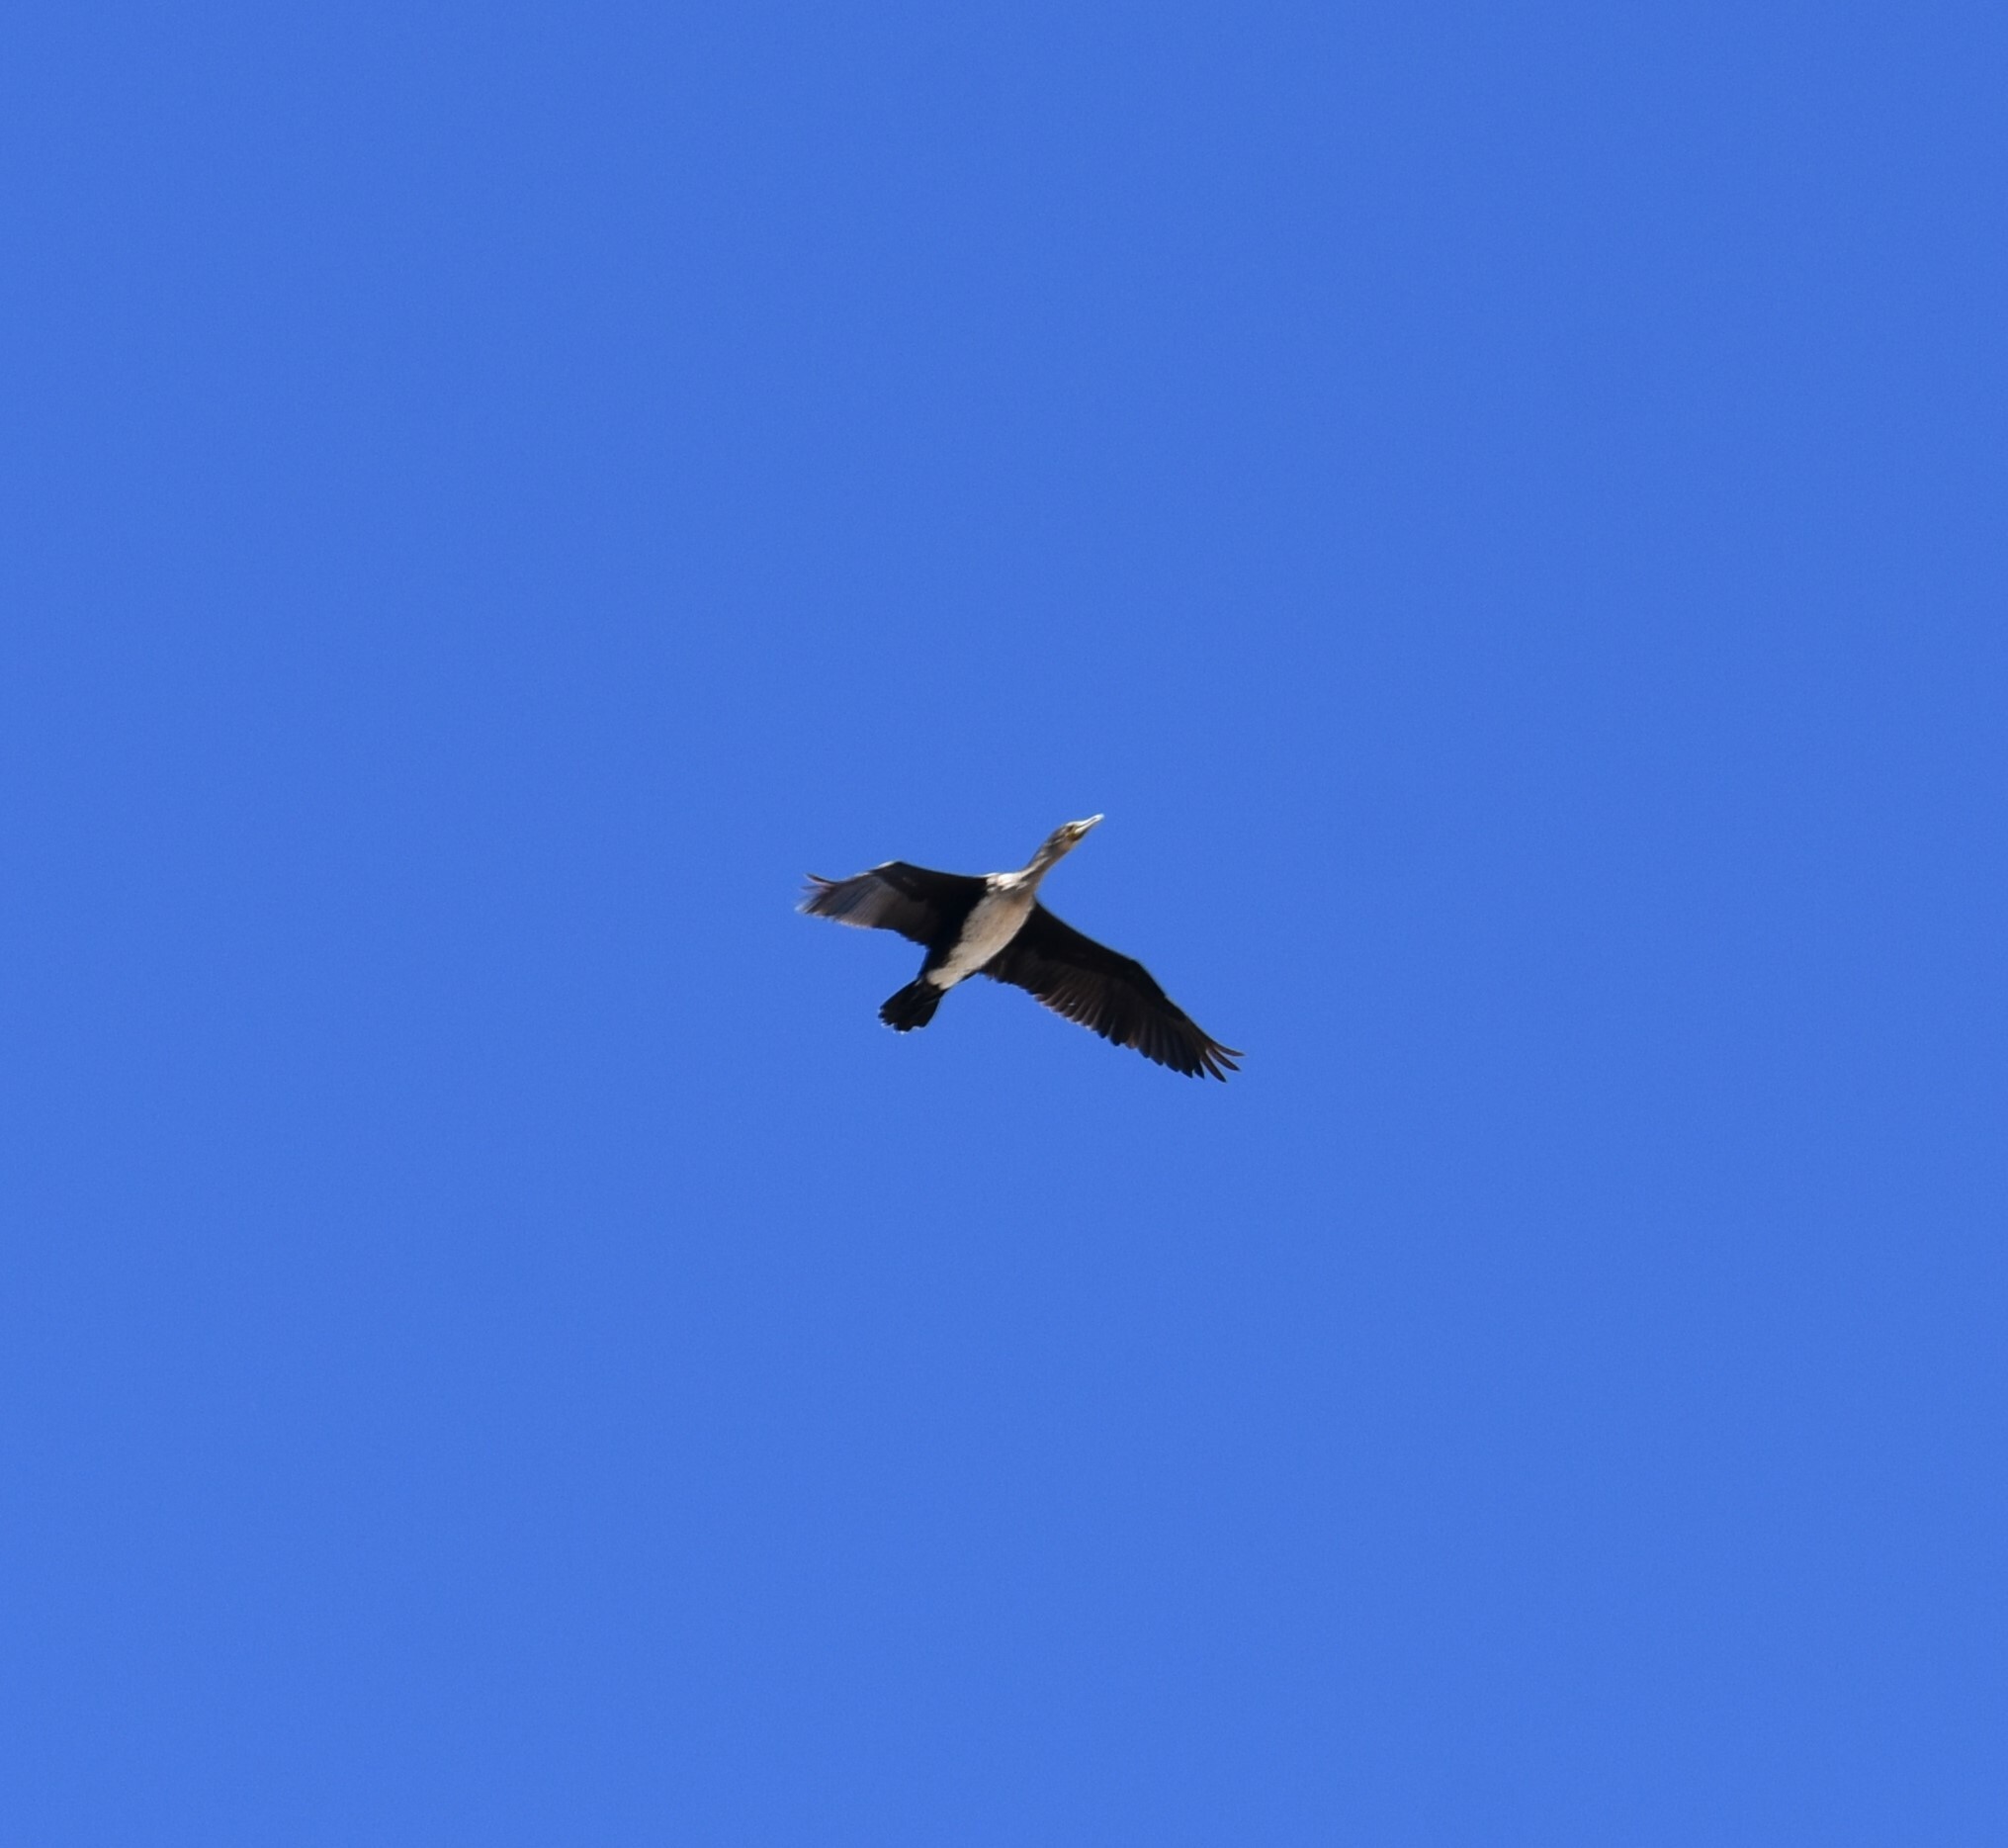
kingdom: Animalia
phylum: Chordata
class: Aves
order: Suliformes
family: Phalacrocoracidae
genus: Phalacrocorax
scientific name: Phalacrocorax carbo
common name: Great cormorant
